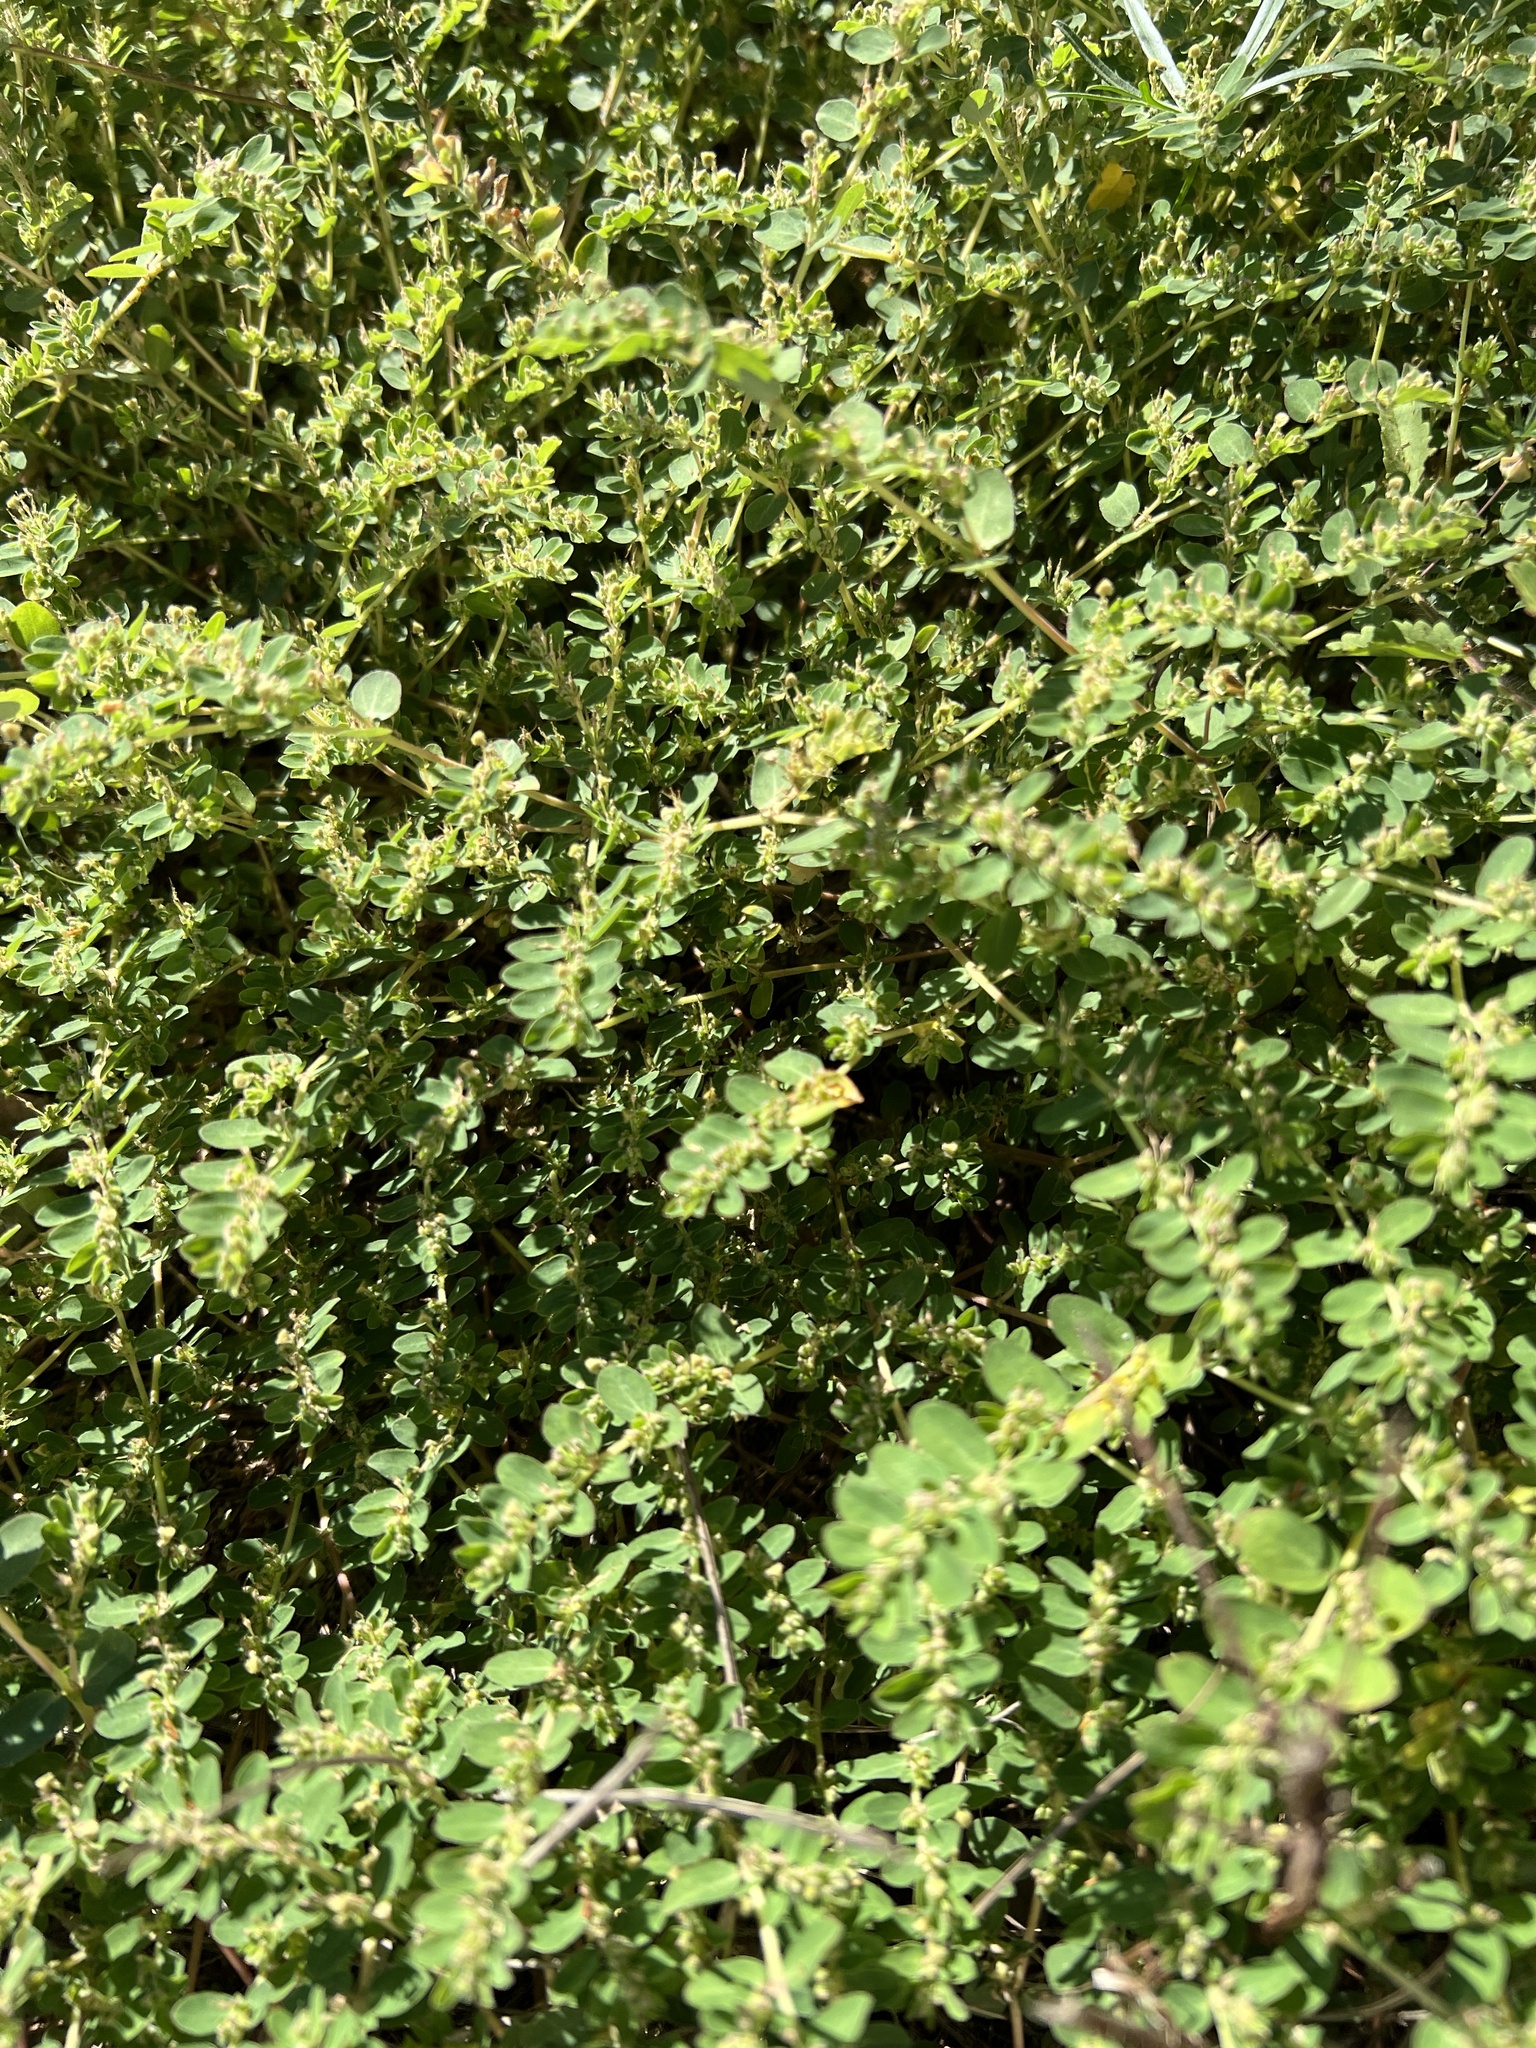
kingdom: Plantae
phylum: Tracheophyta
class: Magnoliopsida
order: Malpighiales
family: Euphorbiaceae
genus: Euphorbia
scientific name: Euphorbia prostrata
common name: Prostrate sandmat
